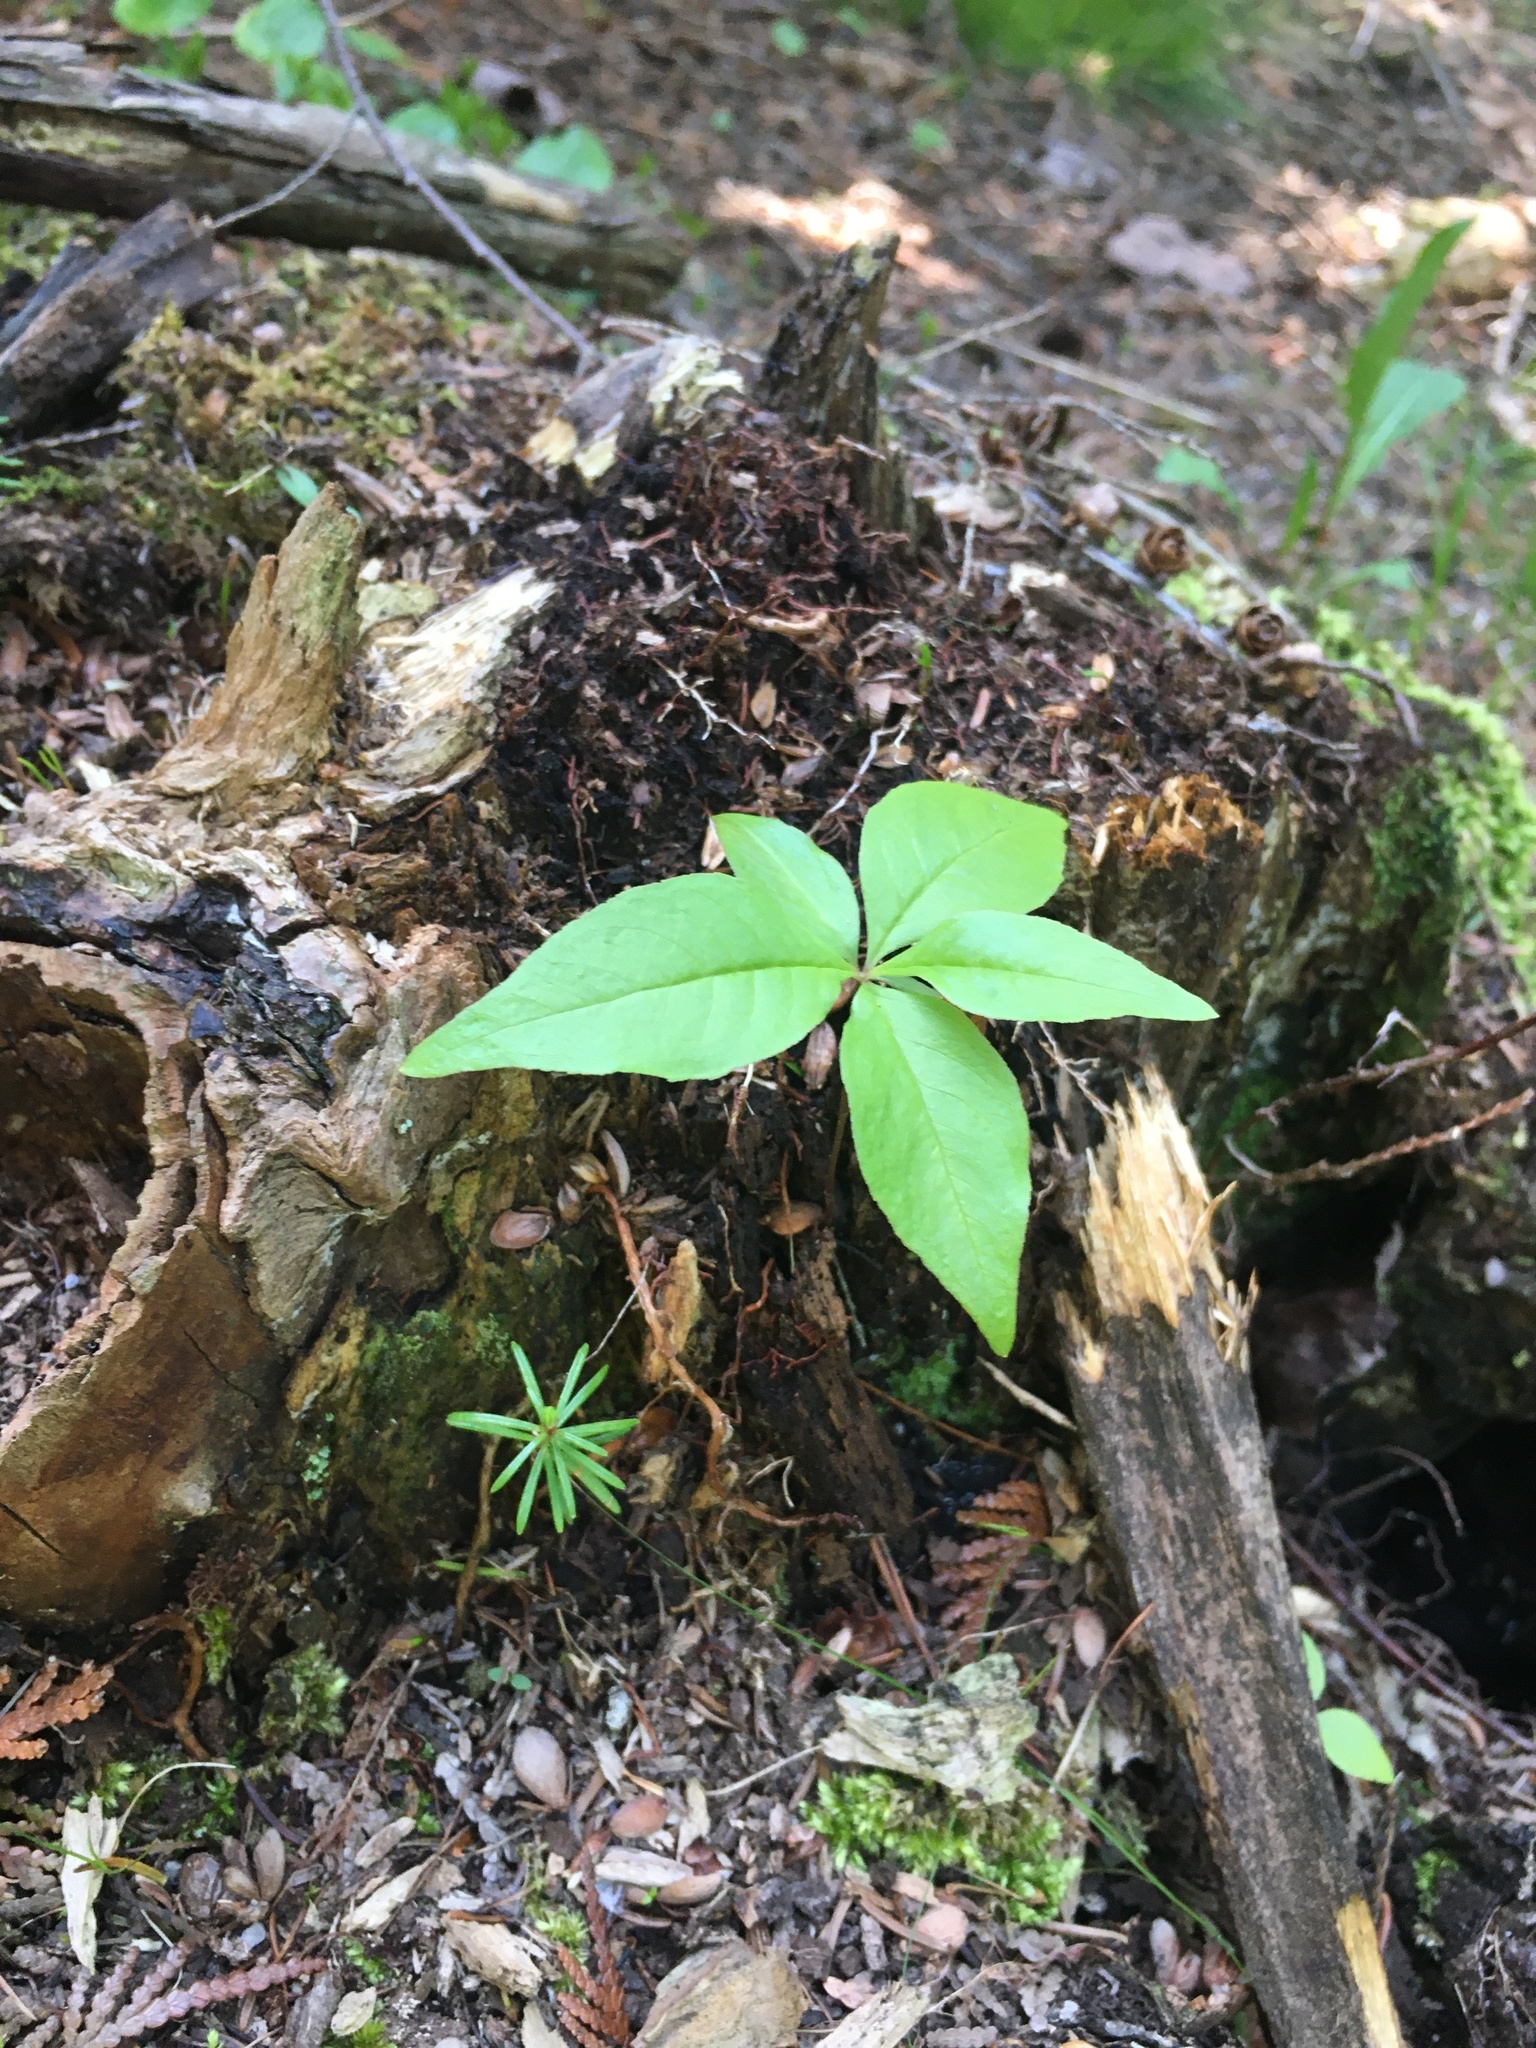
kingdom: Plantae
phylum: Tracheophyta
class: Magnoliopsida
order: Ericales
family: Primulaceae
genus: Lysimachia
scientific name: Lysimachia borealis
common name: American starflower
